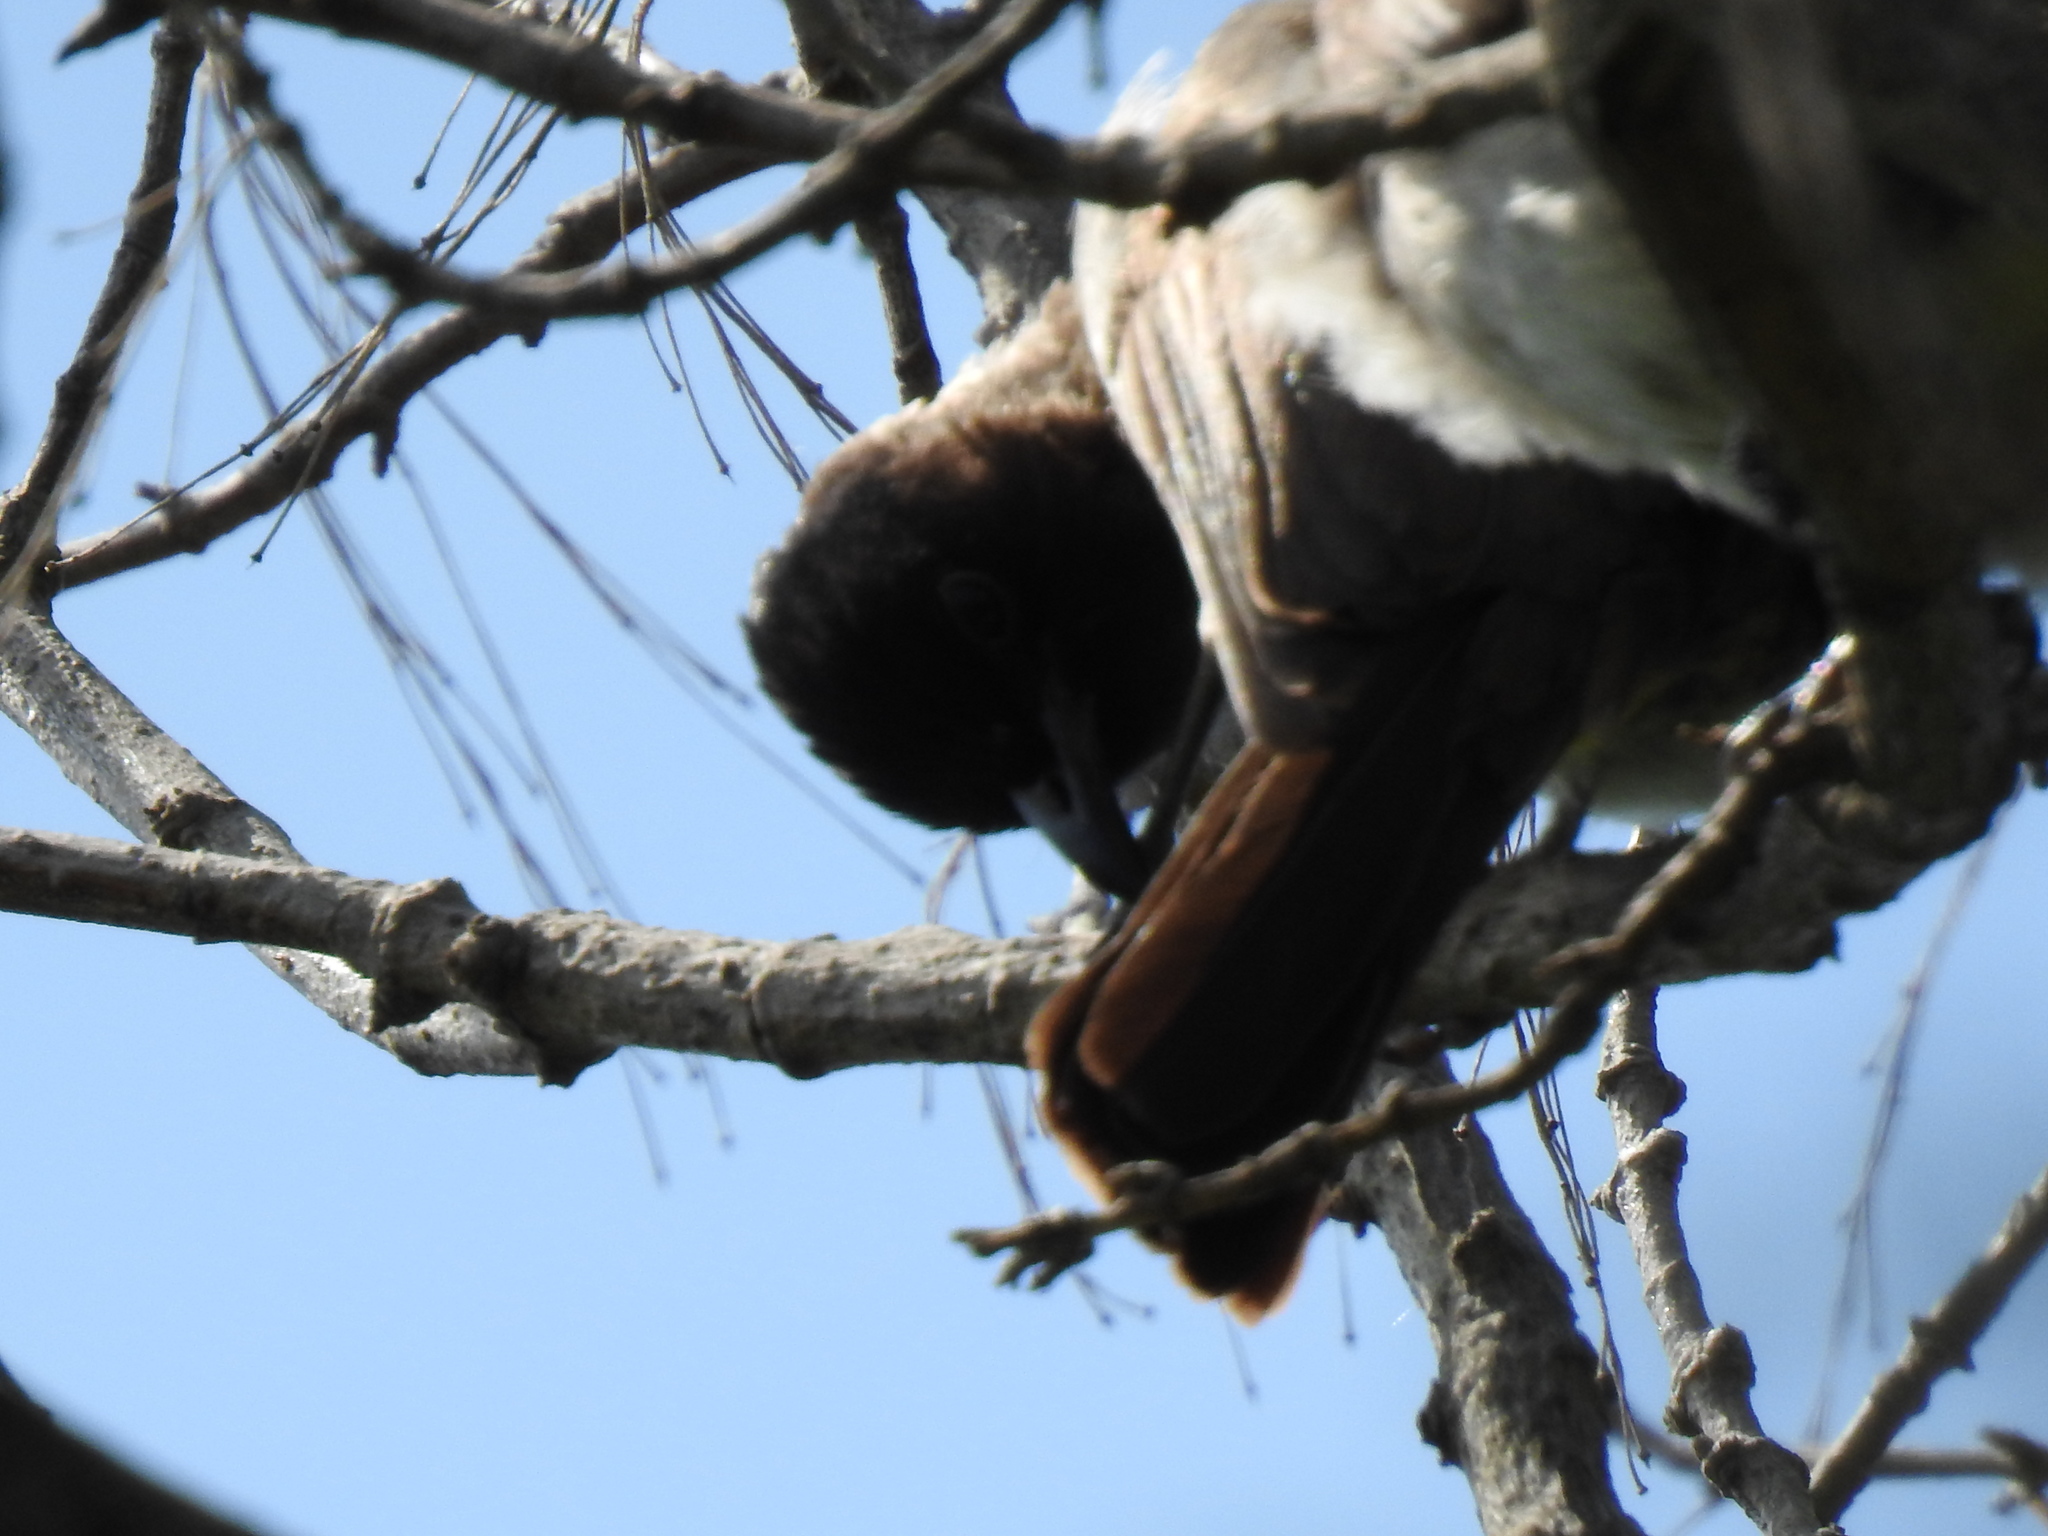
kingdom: Animalia
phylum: Chordata
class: Aves
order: Passeriformes
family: Pycnonotidae
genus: Pycnonotus
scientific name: Pycnonotus barbatus
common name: Common bulbul
